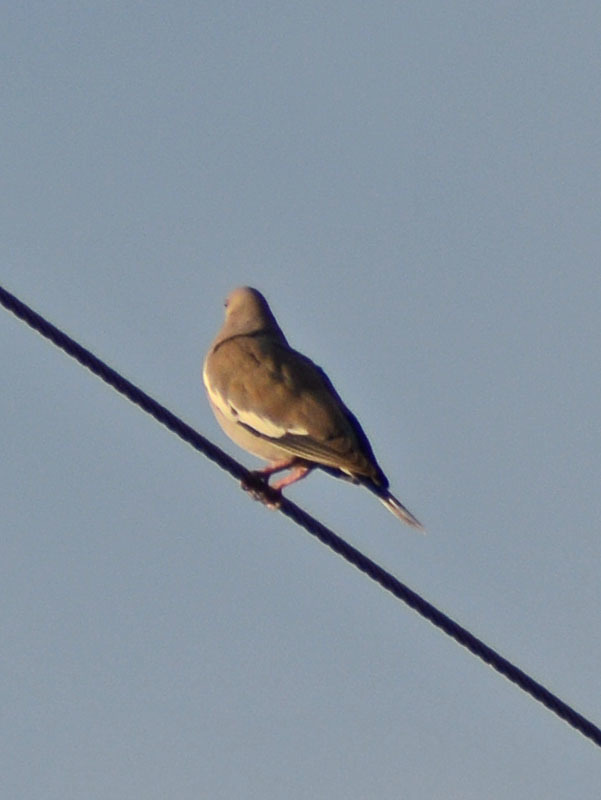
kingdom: Animalia
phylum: Chordata
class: Aves
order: Columbiformes
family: Columbidae
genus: Zenaida
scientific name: Zenaida asiatica
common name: White-winged dove
